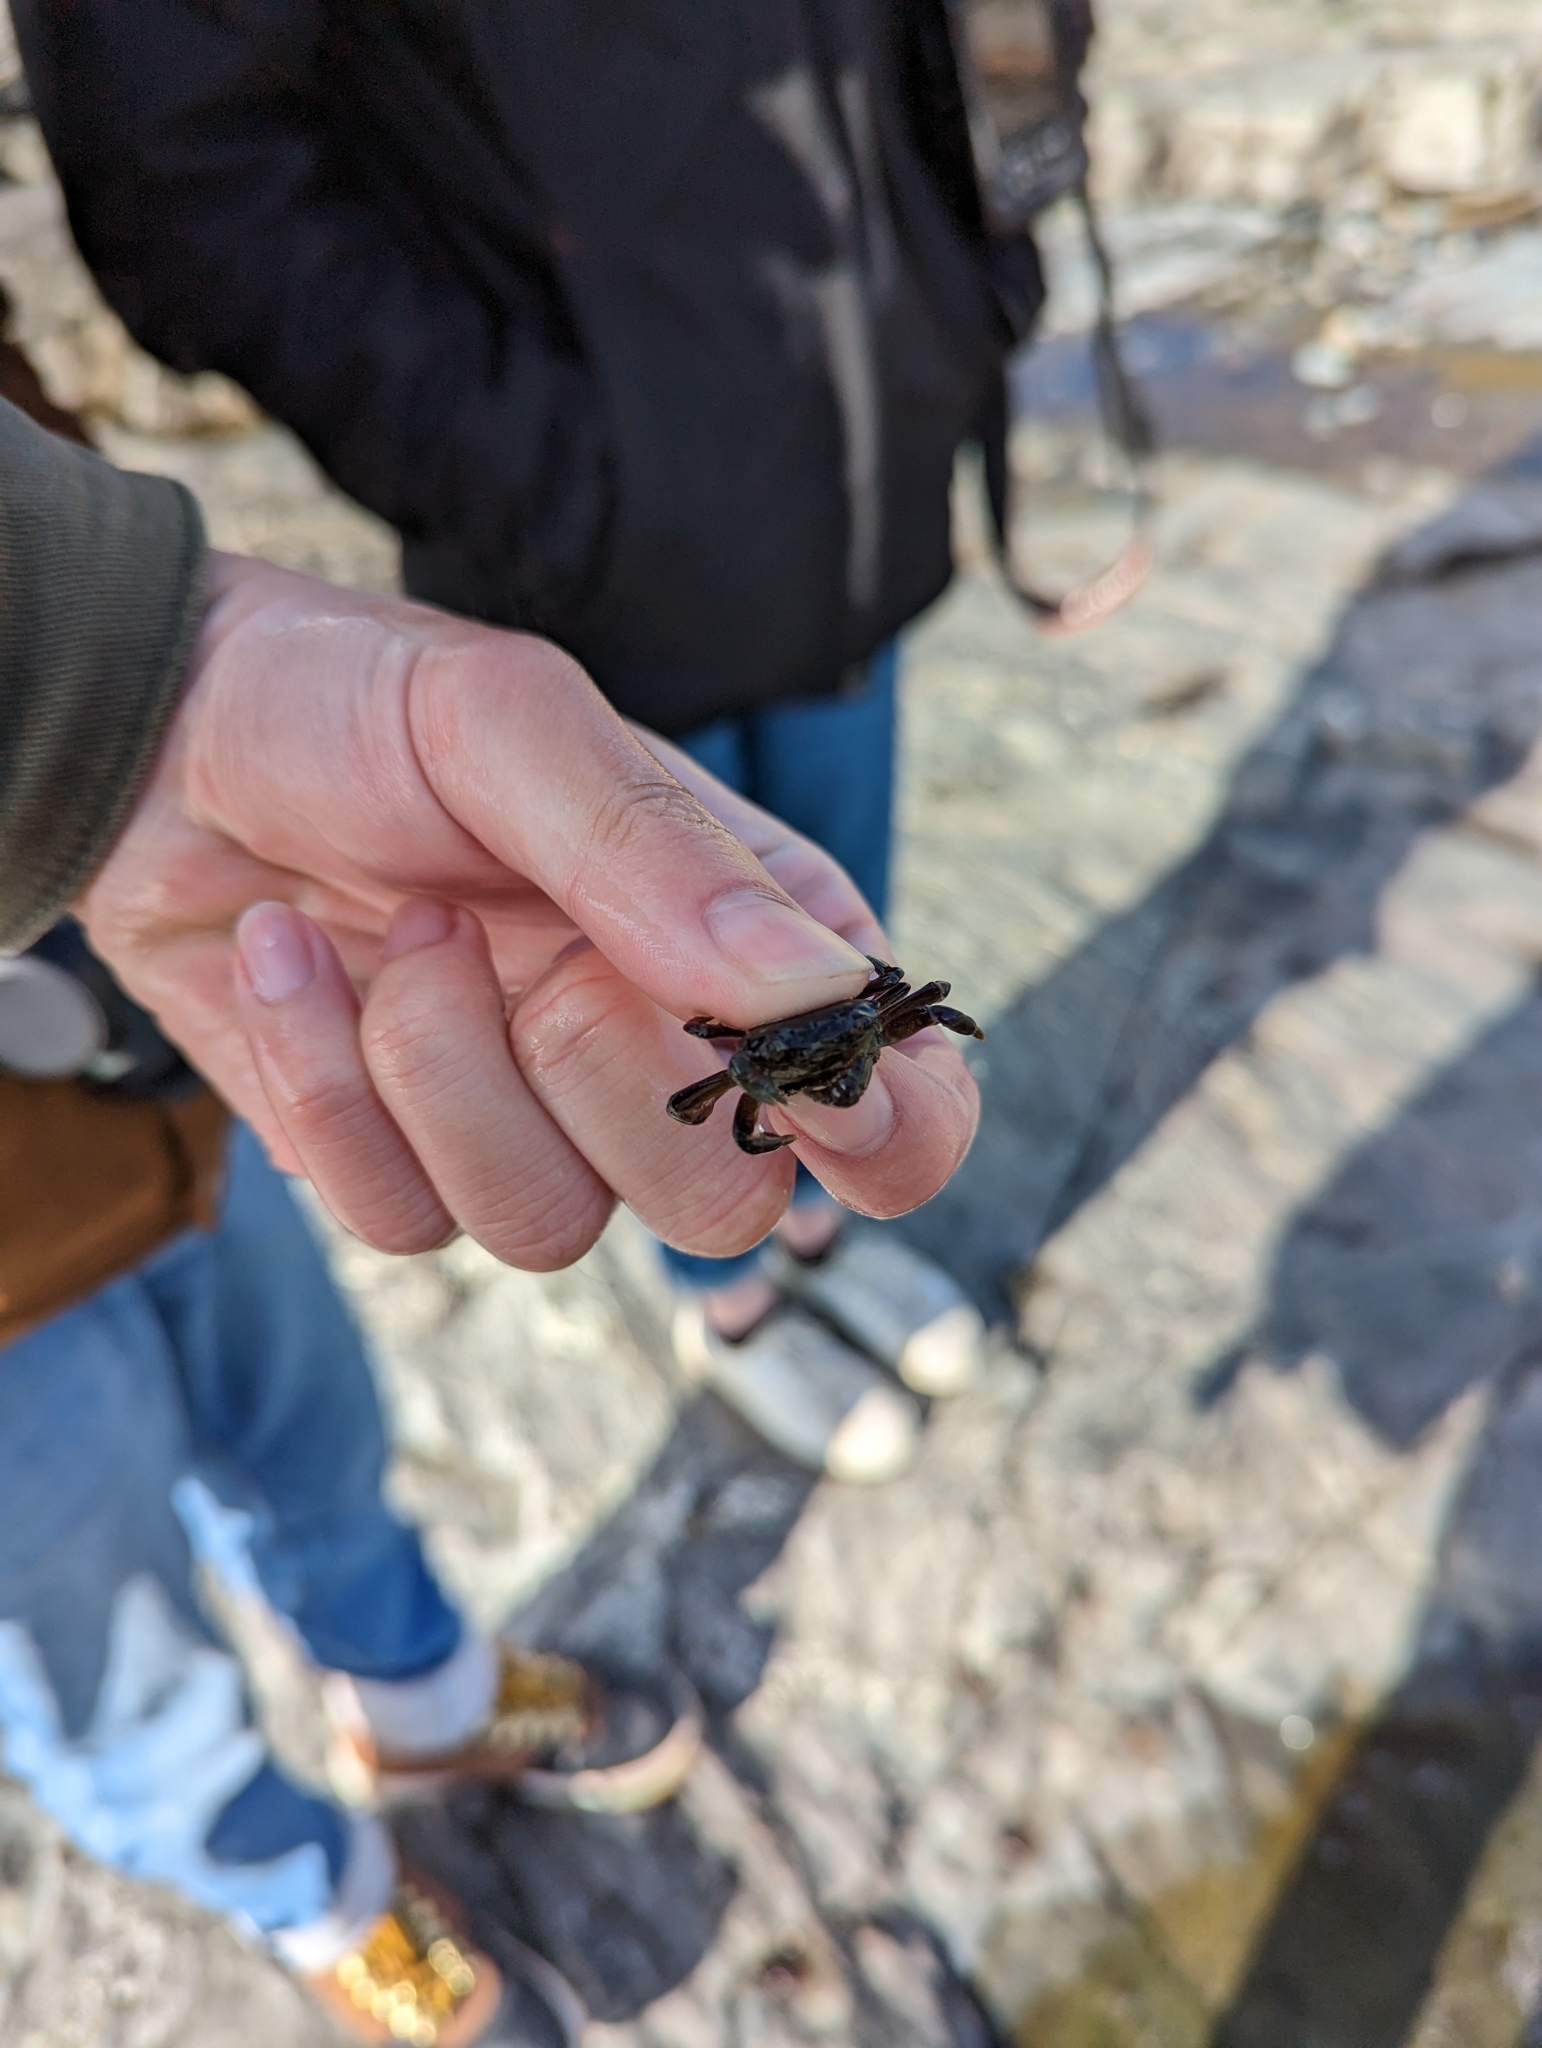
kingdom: Animalia
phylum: Arthropoda
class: Malacostraca
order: Decapoda
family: Varunidae
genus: Hemigrapsus
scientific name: Hemigrapsus nudus
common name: Purple shore crab
